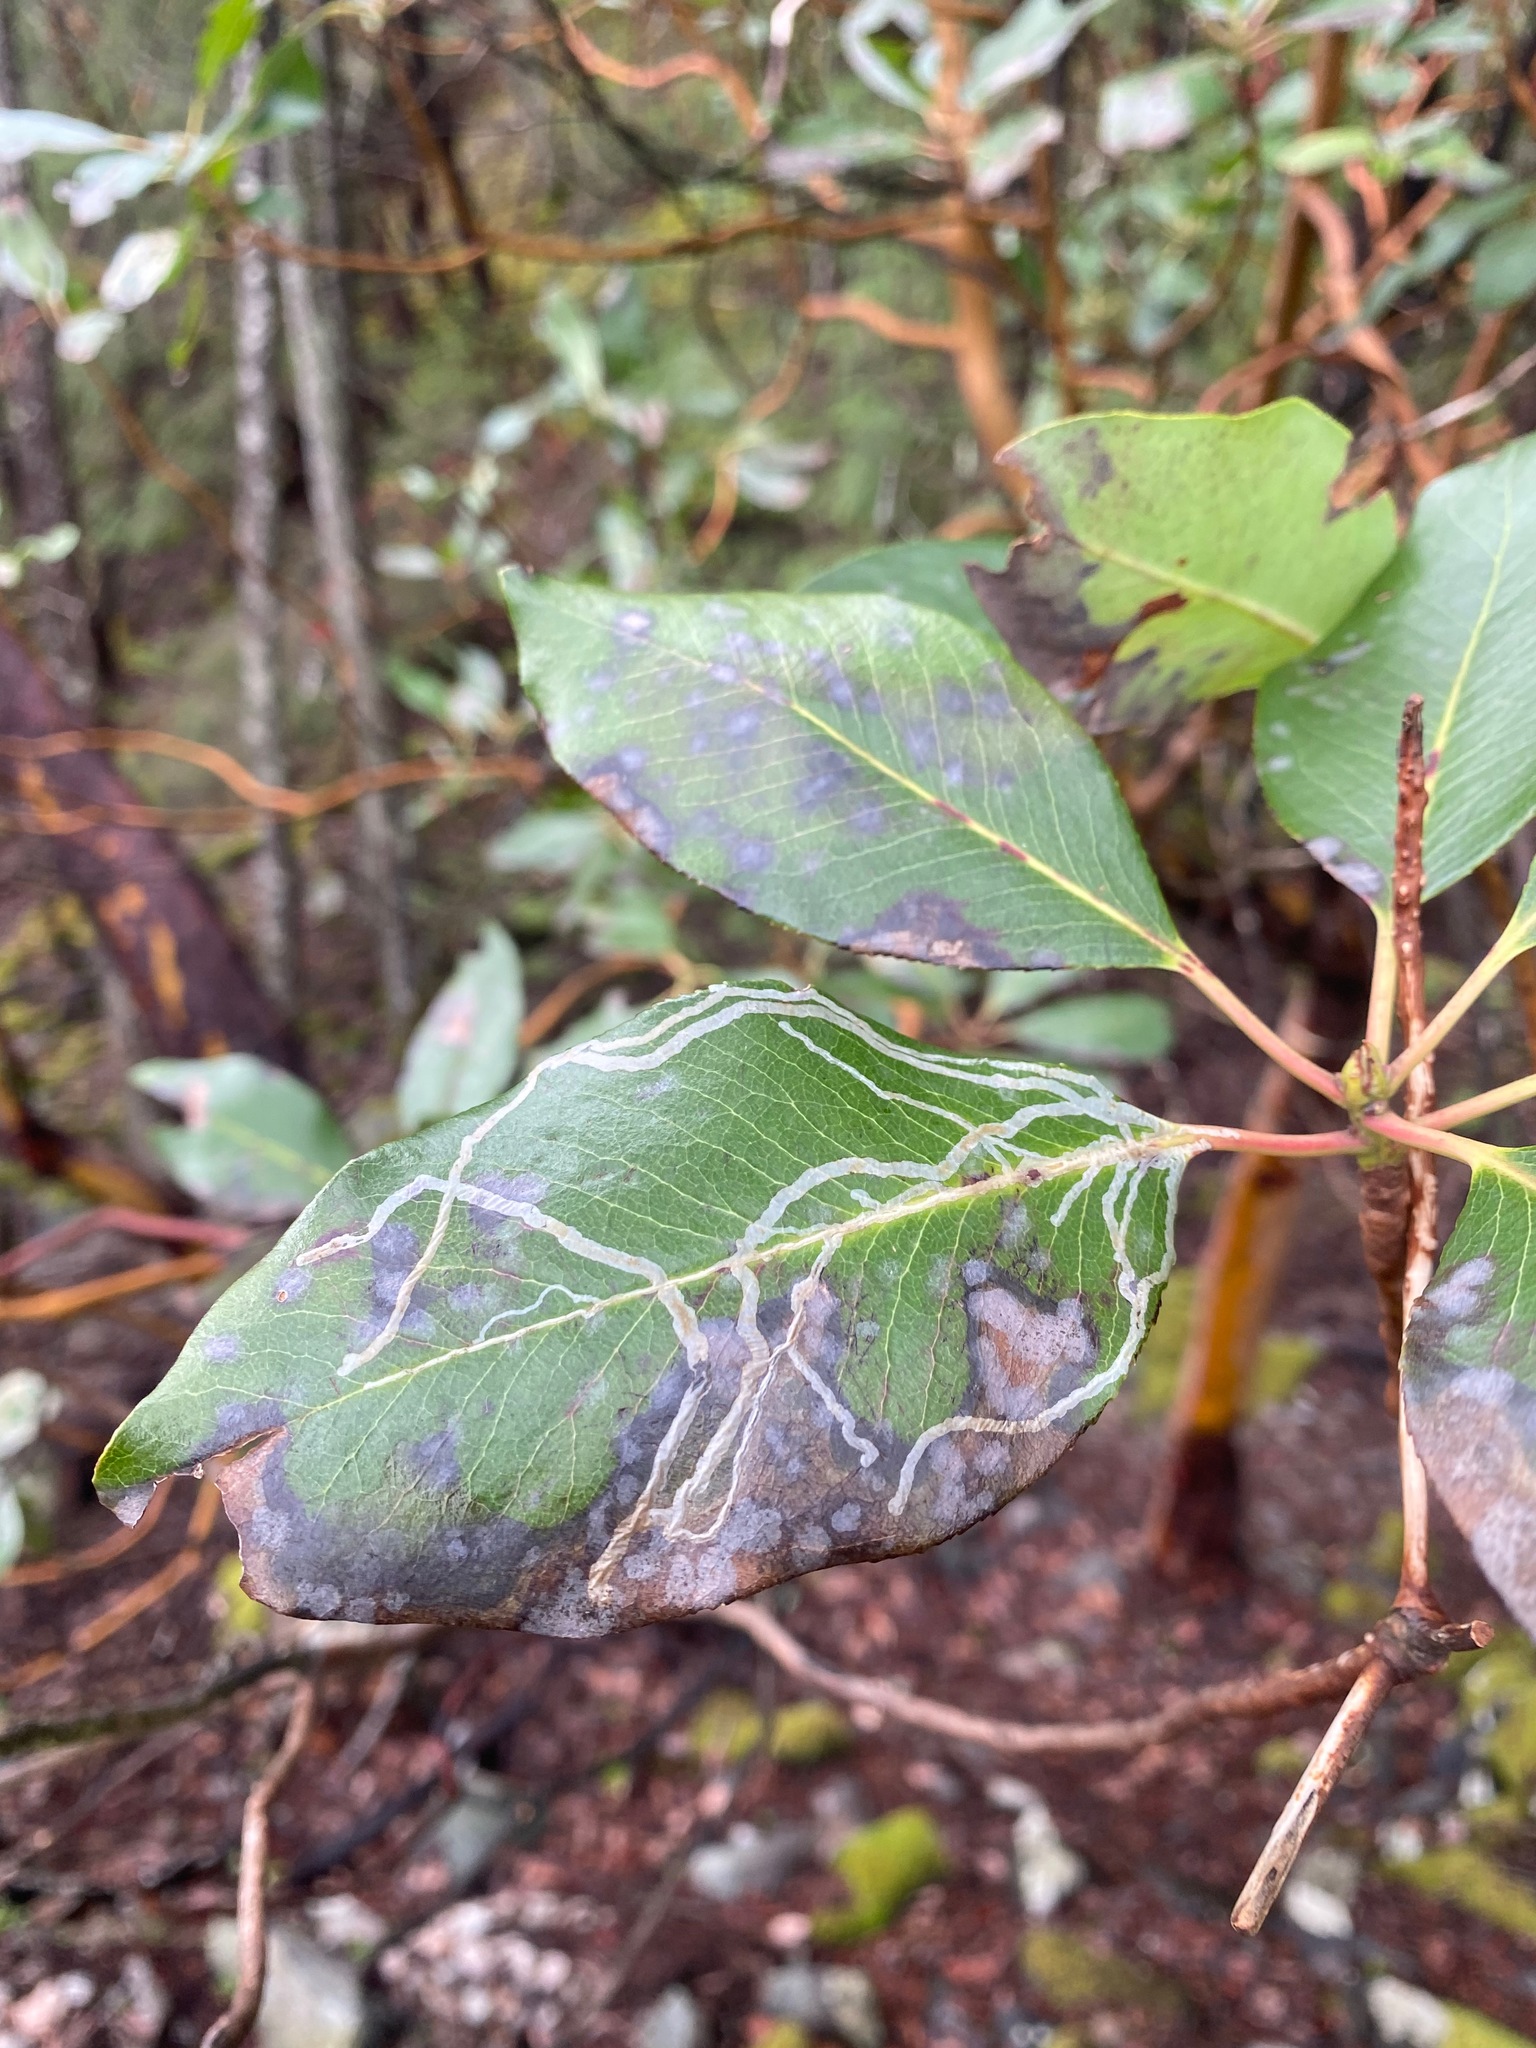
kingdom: Animalia
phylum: Arthropoda
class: Insecta
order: Lepidoptera
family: Gracillariidae
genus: Marmara
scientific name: Marmara arbutiella
